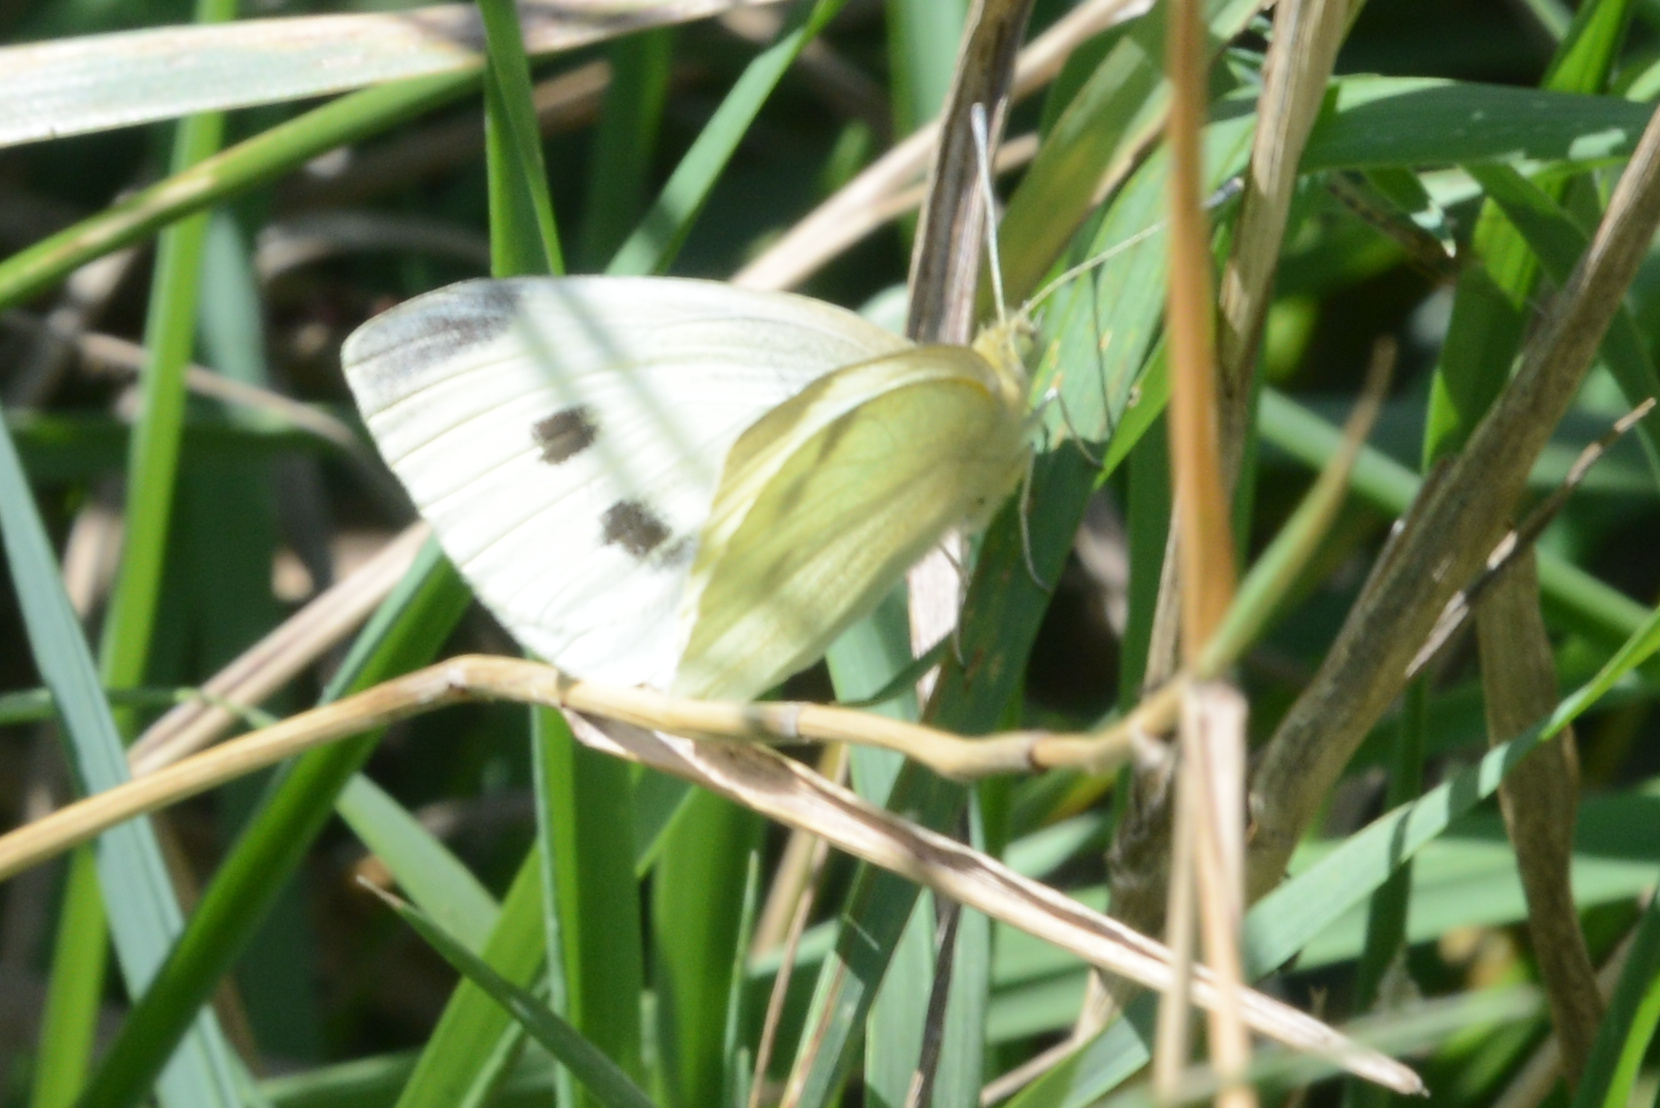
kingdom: Animalia
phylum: Arthropoda
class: Insecta
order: Lepidoptera
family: Pieridae
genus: Pieris
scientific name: Pieris rapae
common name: Small white
